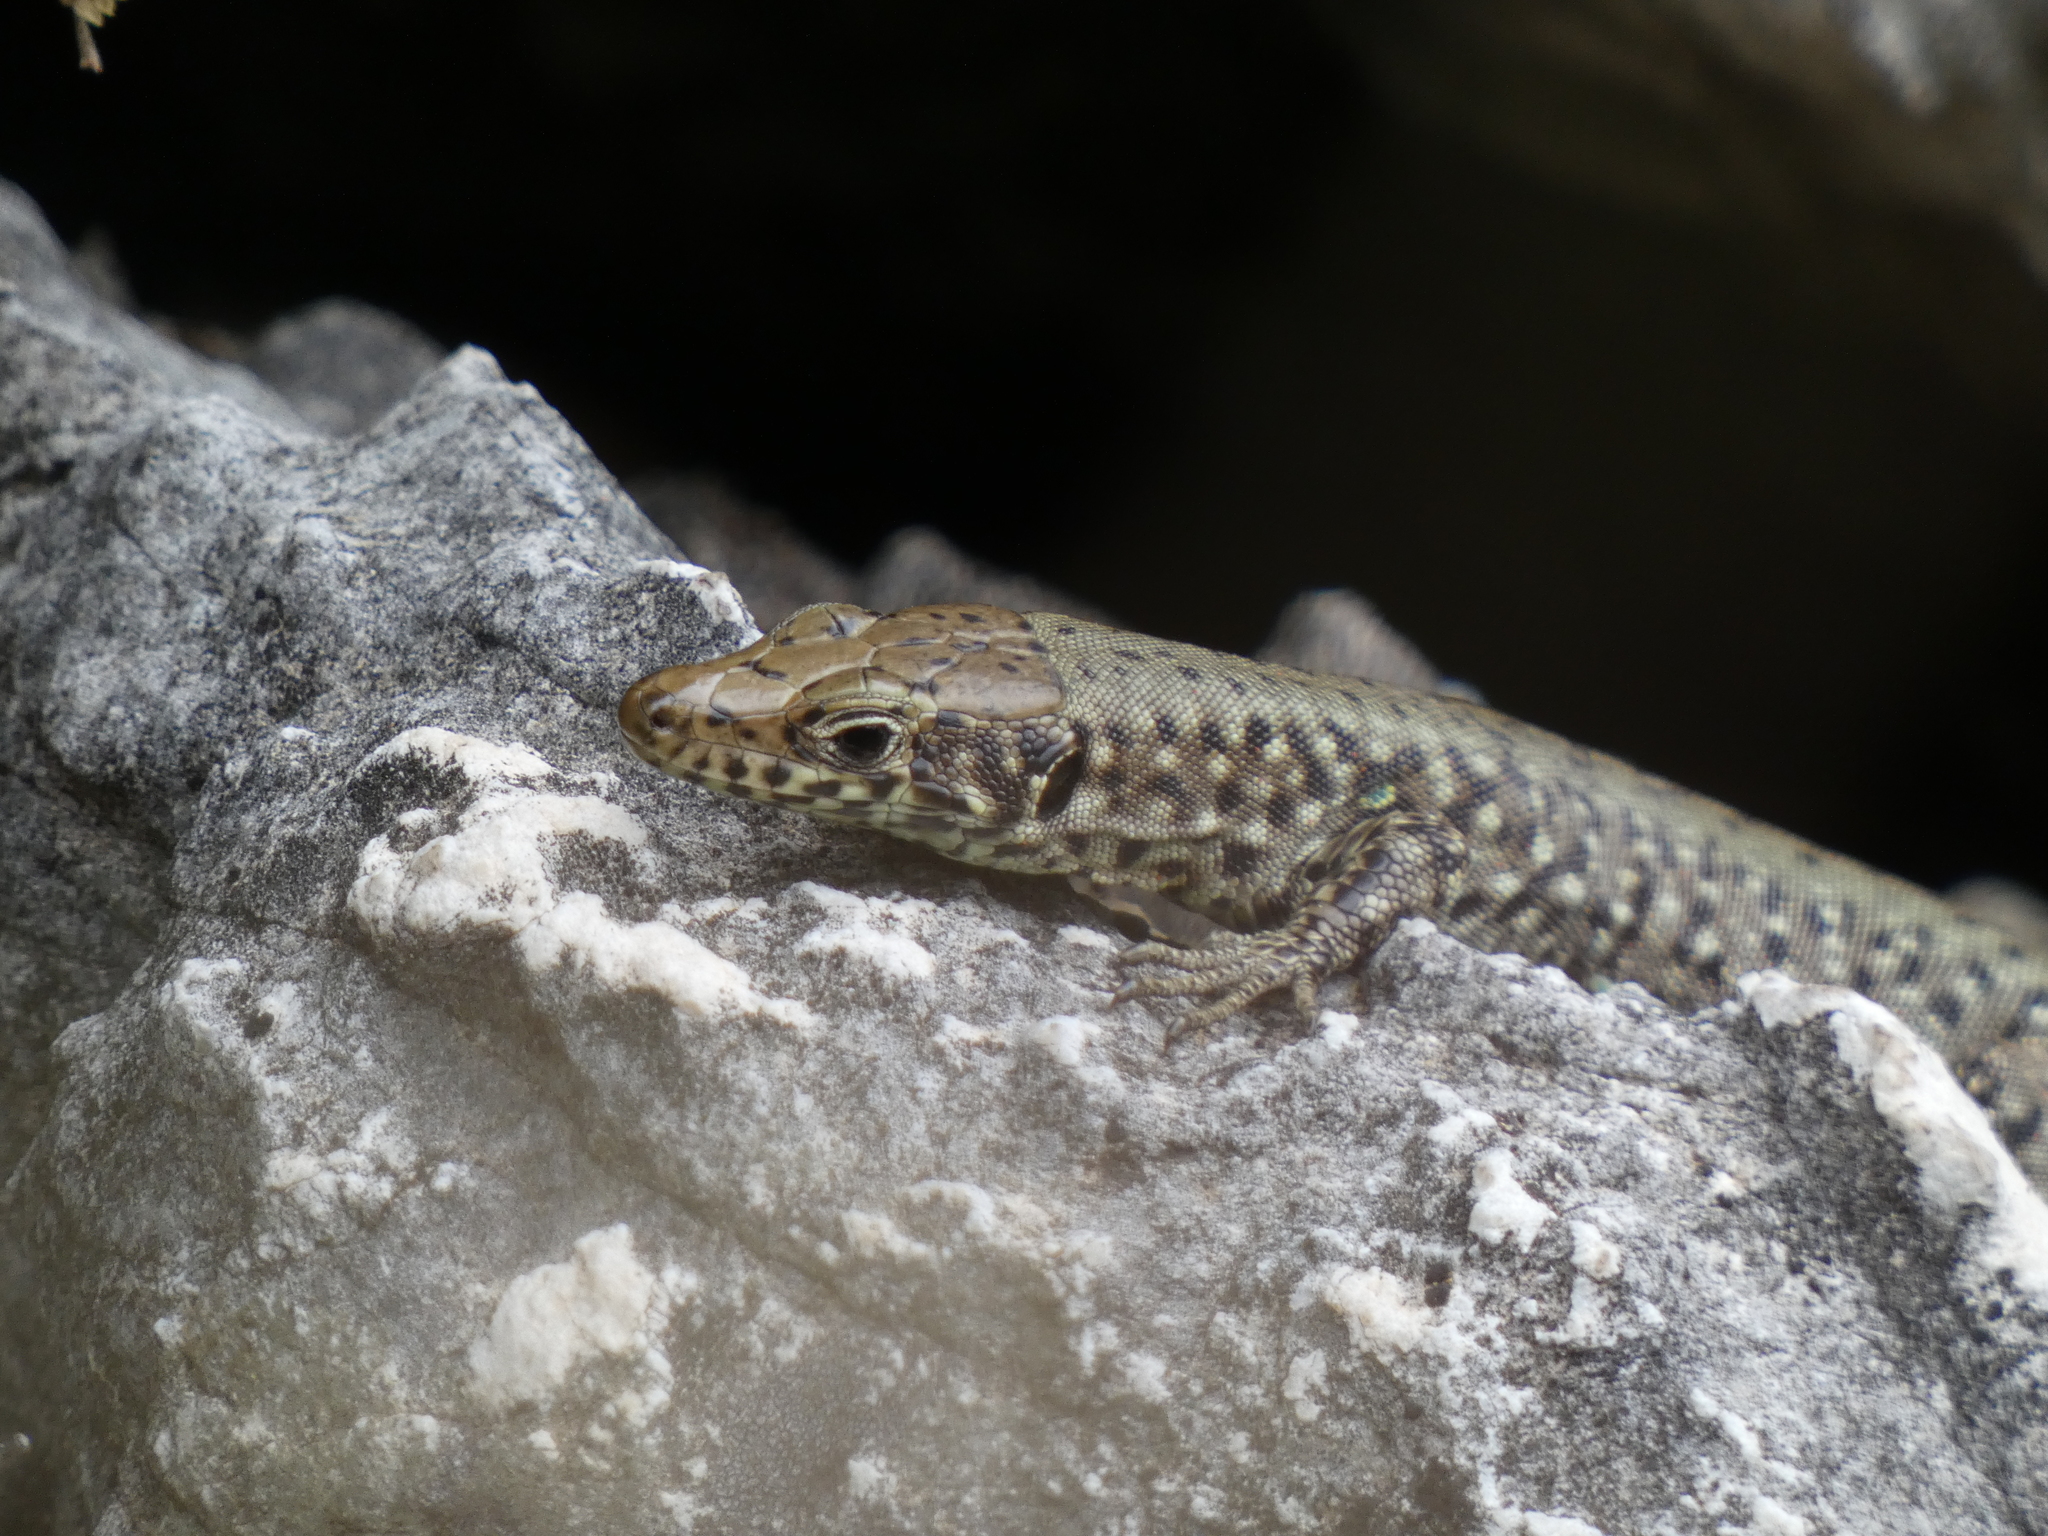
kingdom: Animalia
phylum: Chordata
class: Squamata
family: Lacertidae
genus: Hellenolacerta
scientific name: Hellenolacerta graeca
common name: Greek rock lizard
